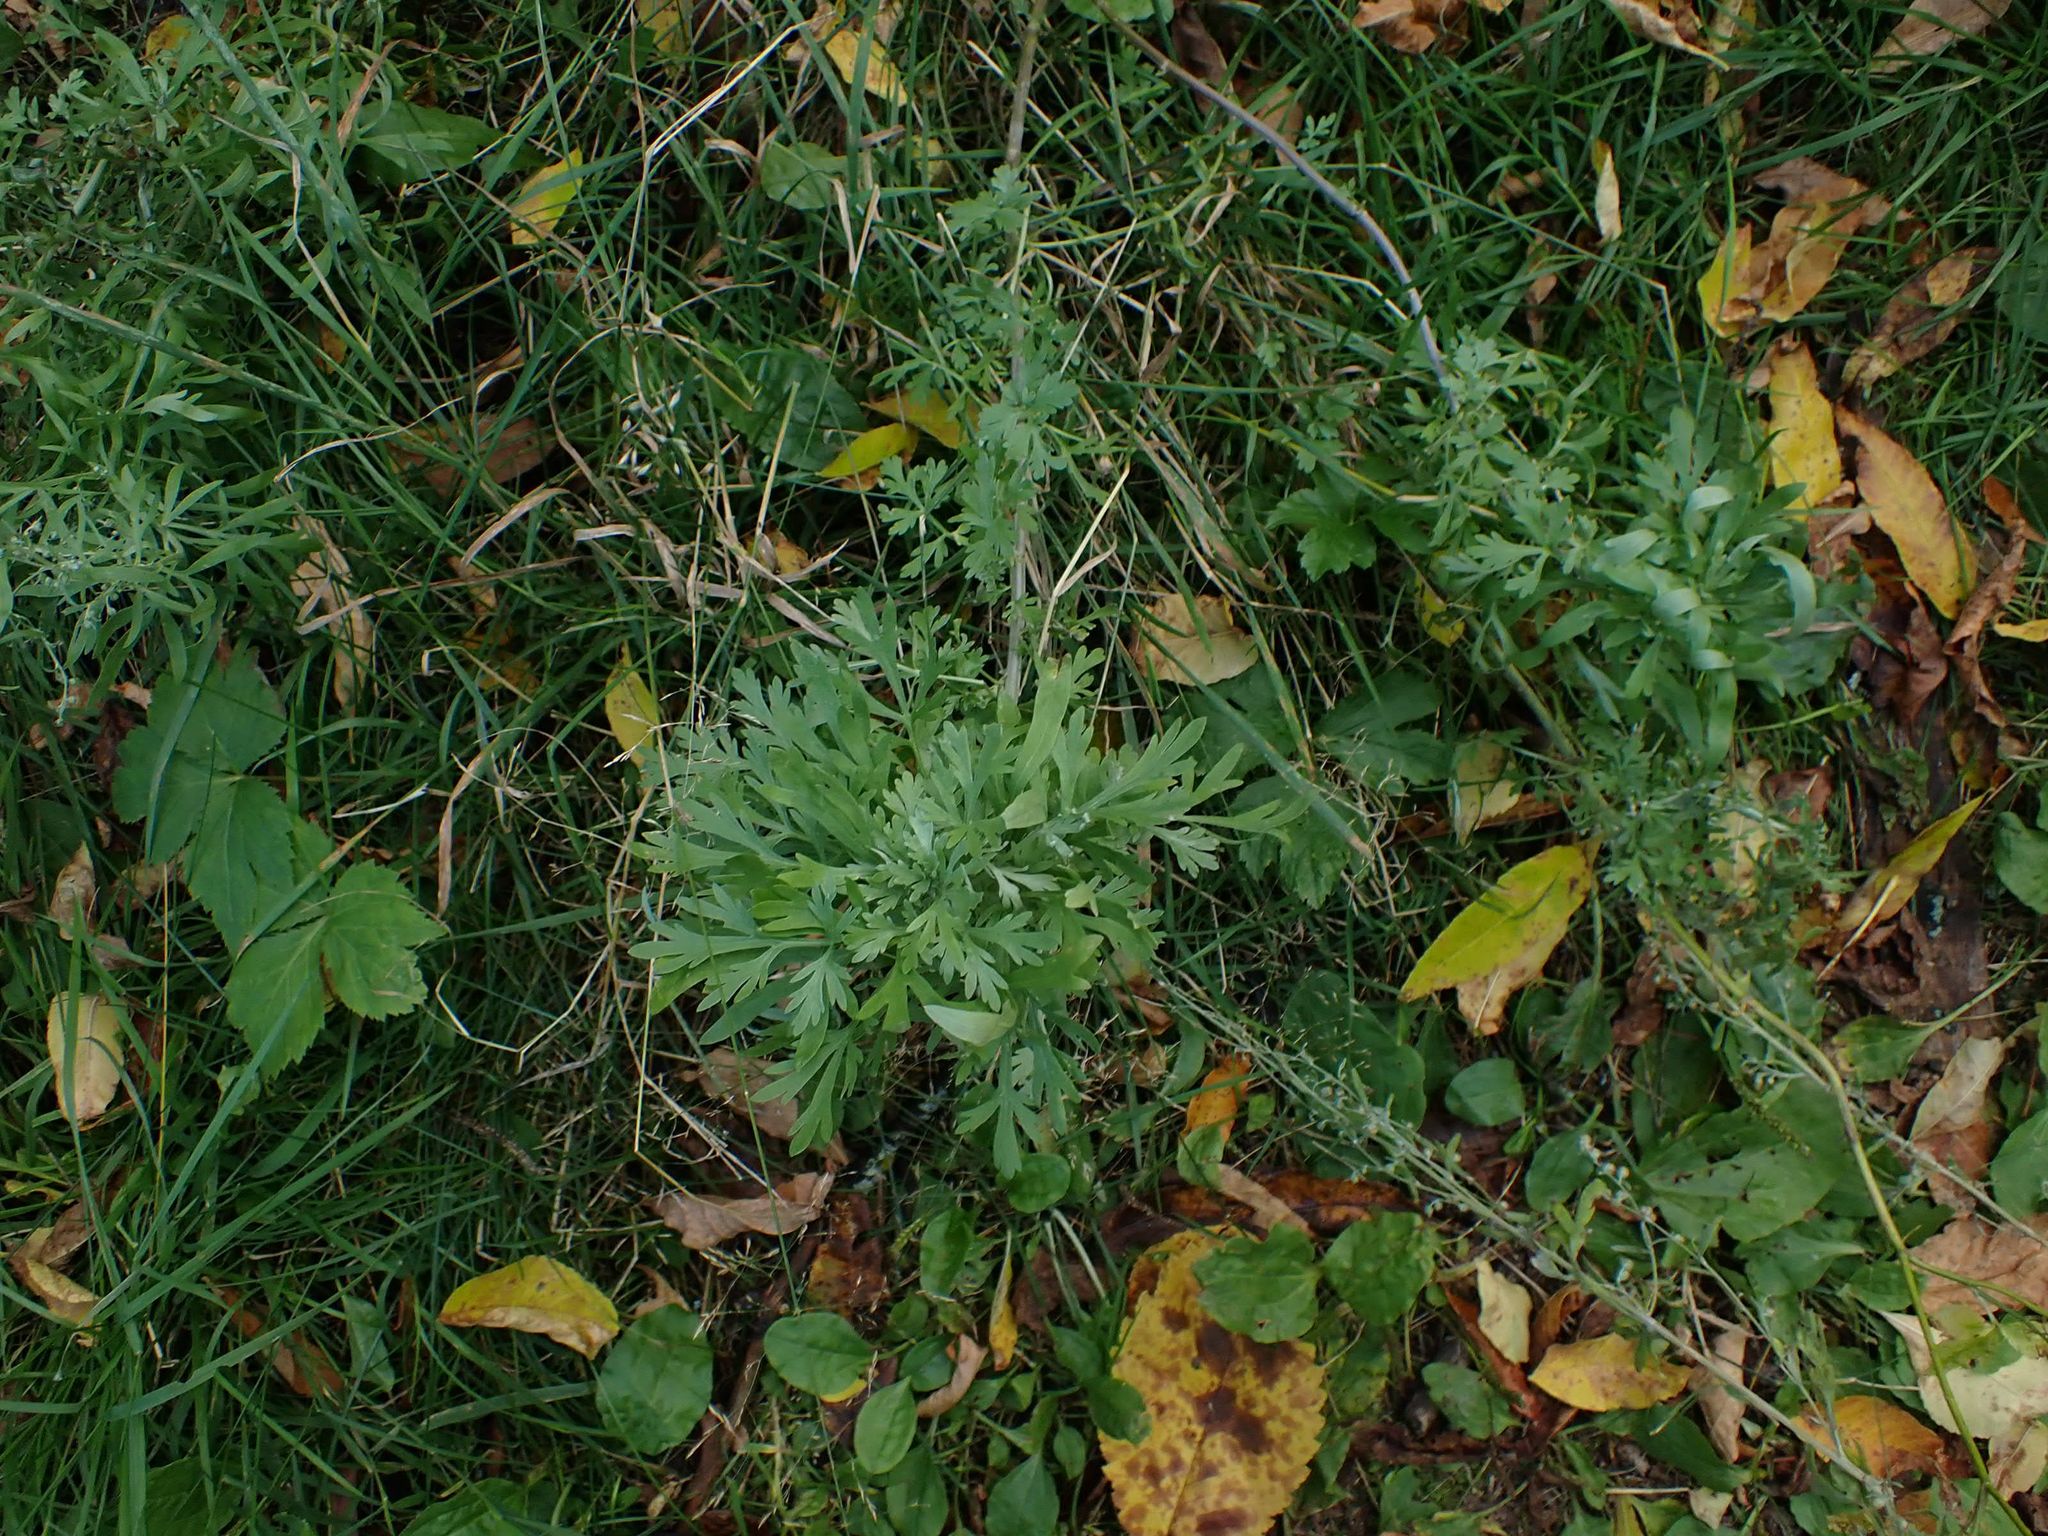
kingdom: Plantae
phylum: Tracheophyta
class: Magnoliopsida
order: Asterales
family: Asteraceae
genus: Artemisia
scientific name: Artemisia absinthium
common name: Wormwood
